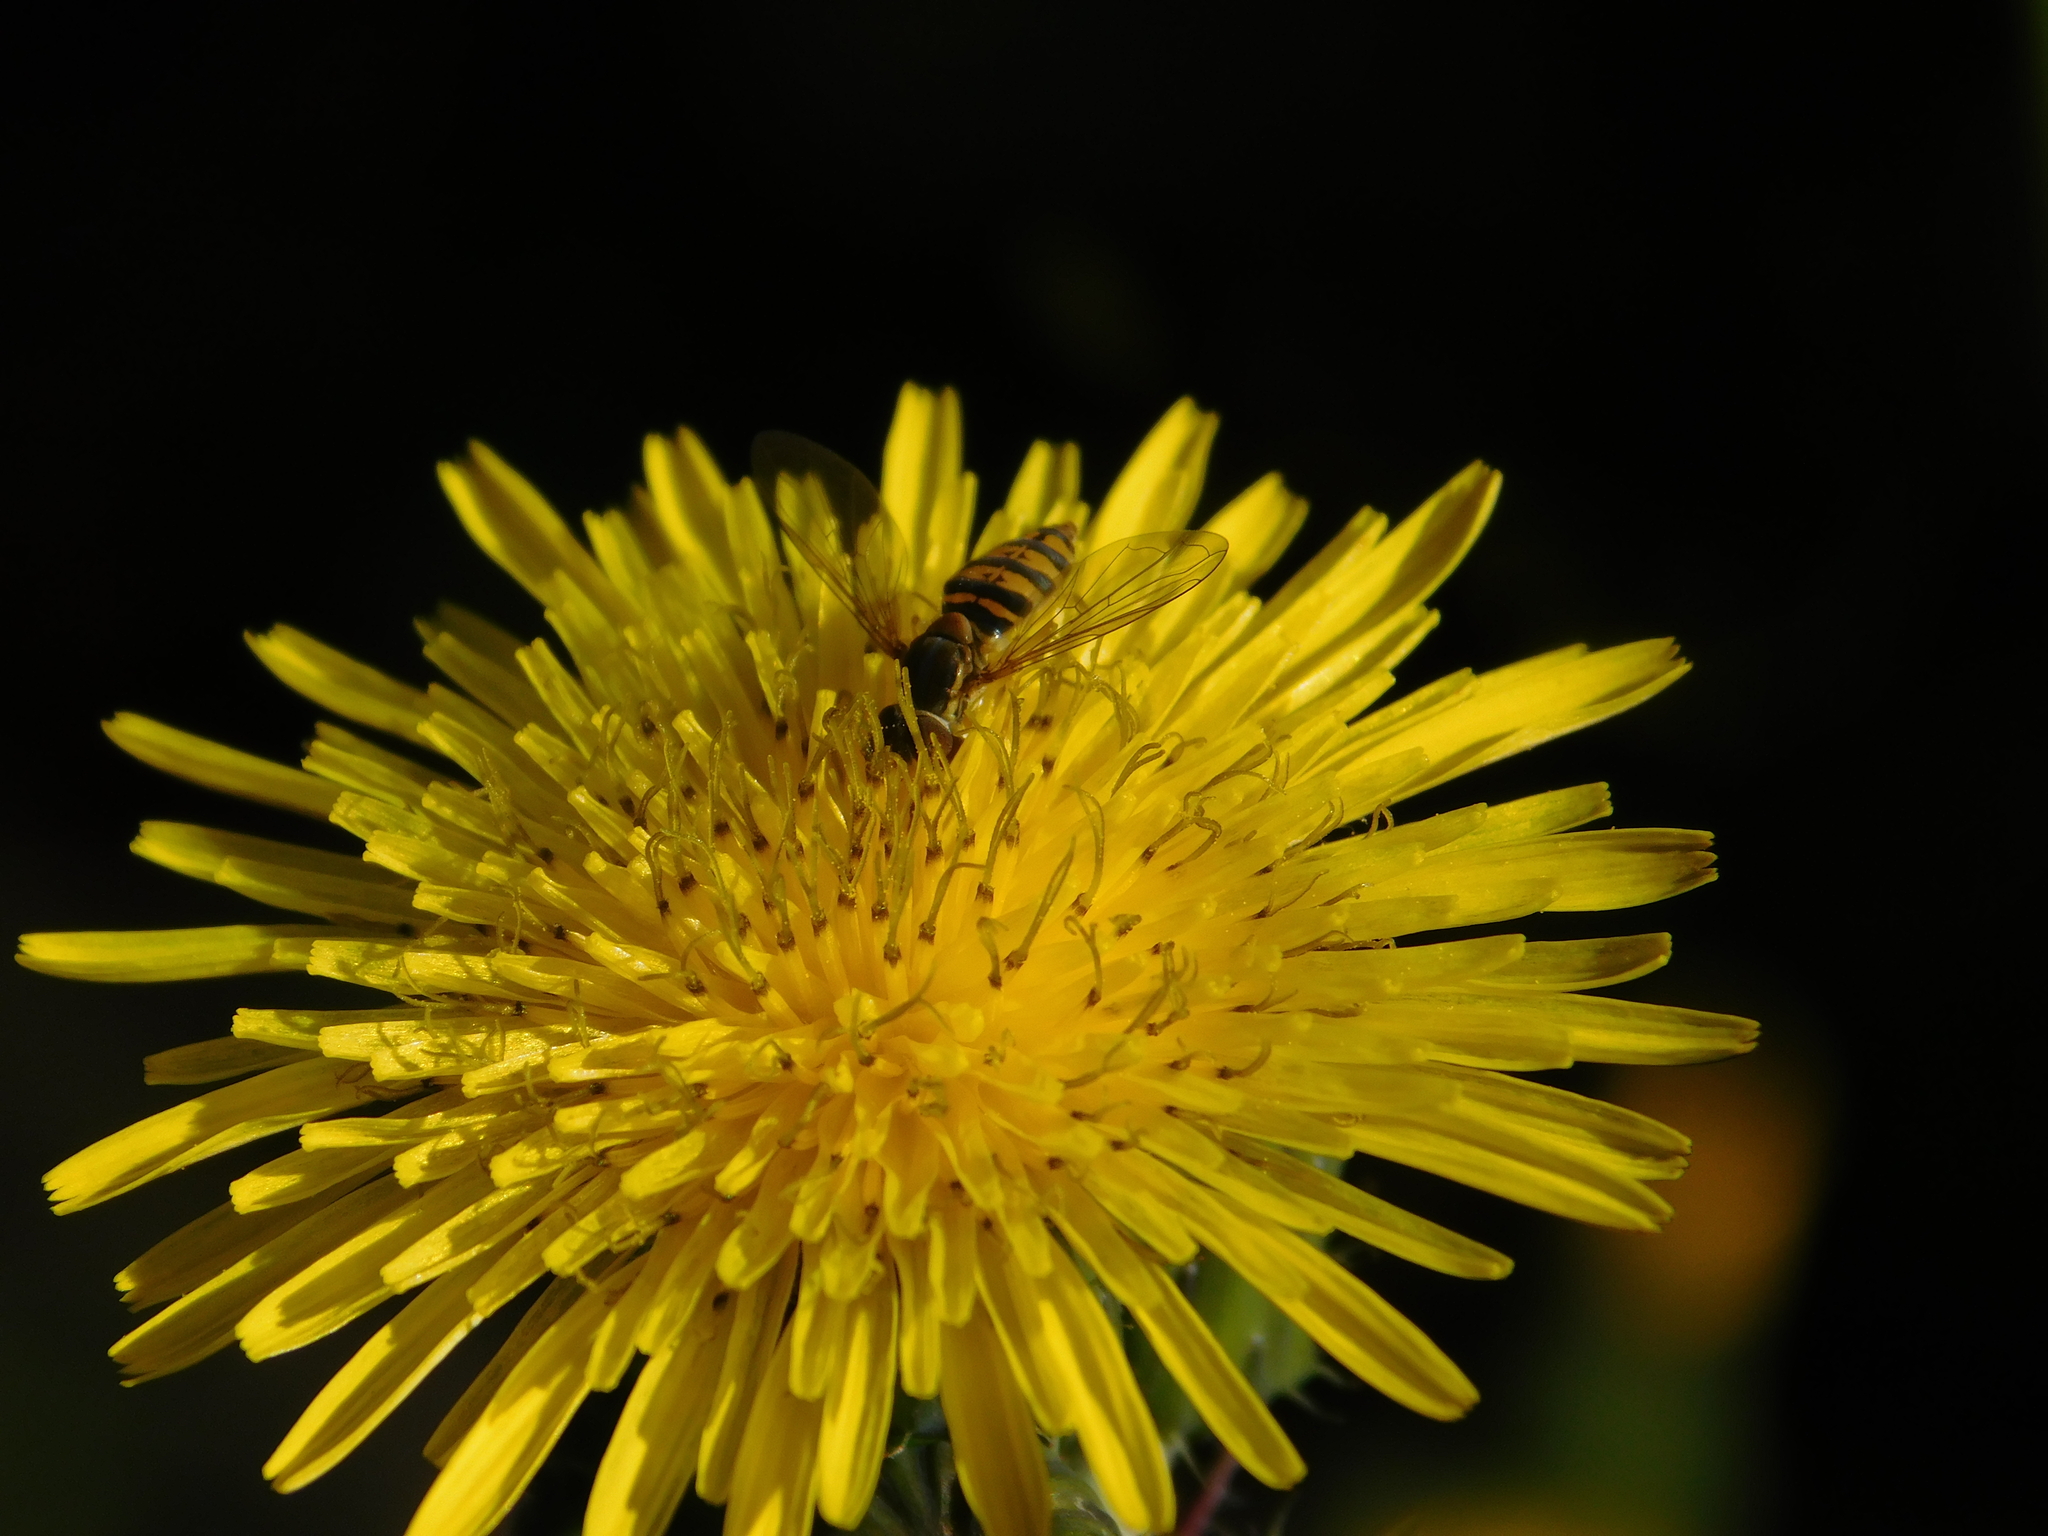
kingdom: Animalia
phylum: Arthropoda
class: Insecta
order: Diptera
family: Syrphidae
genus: Toxomerus
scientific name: Toxomerus
